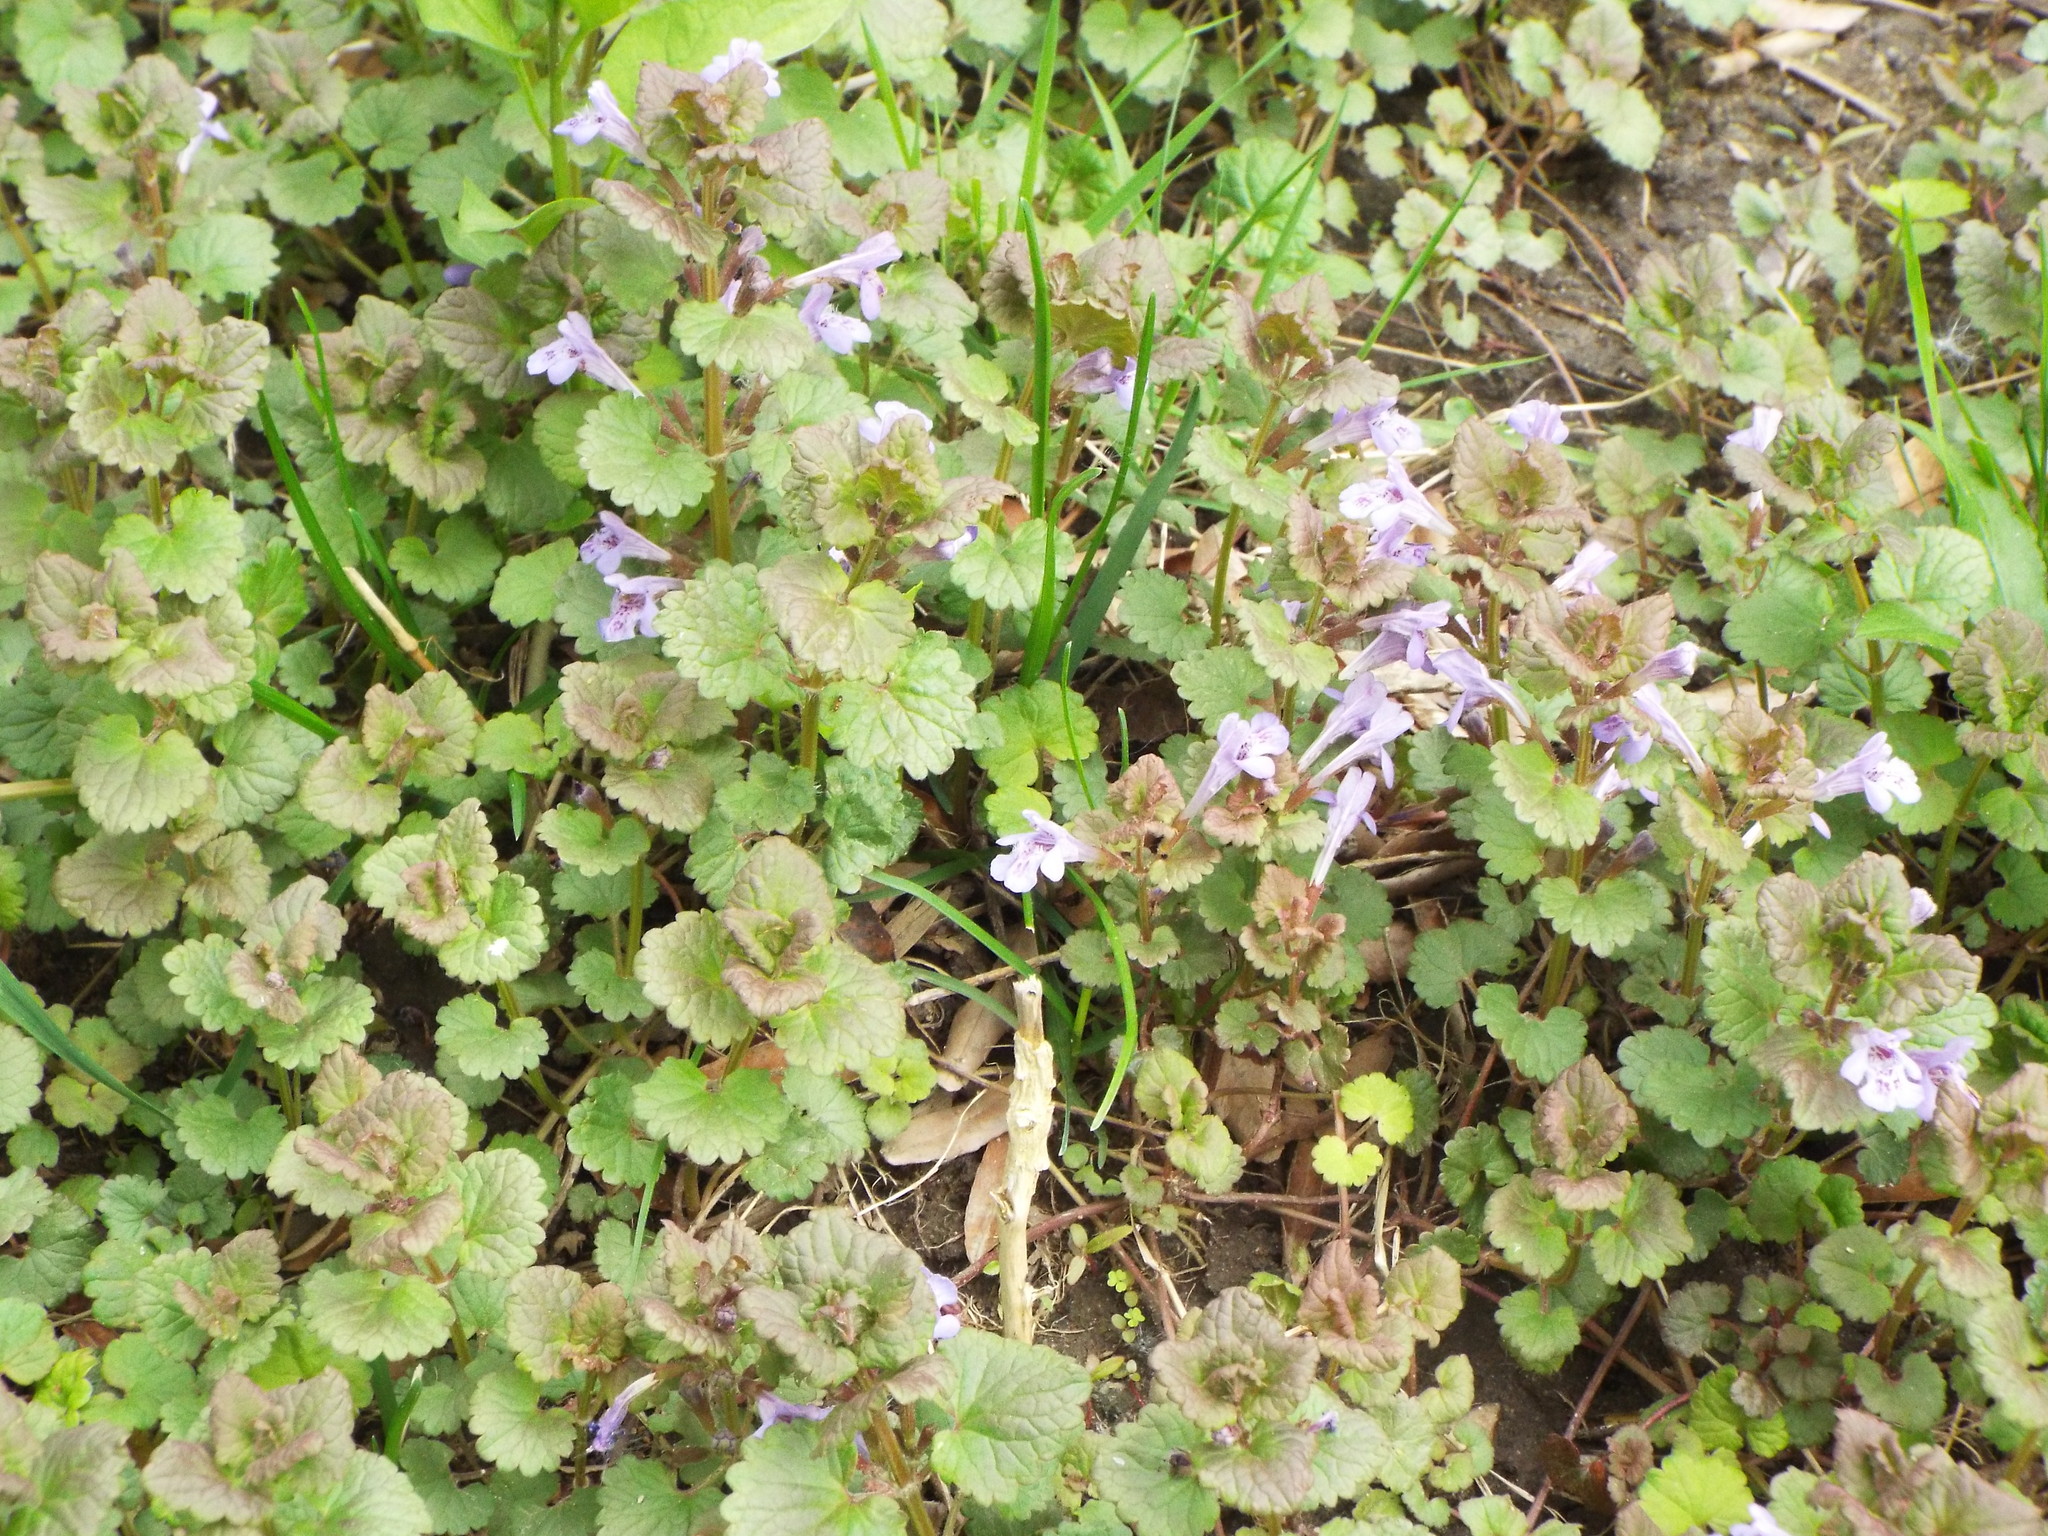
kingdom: Plantae
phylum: Tracheophyta
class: Magnoliopsida
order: Lamiales
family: Lamiaceae
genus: Glechoma
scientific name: Glechoma hederacea
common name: Ground ivy
